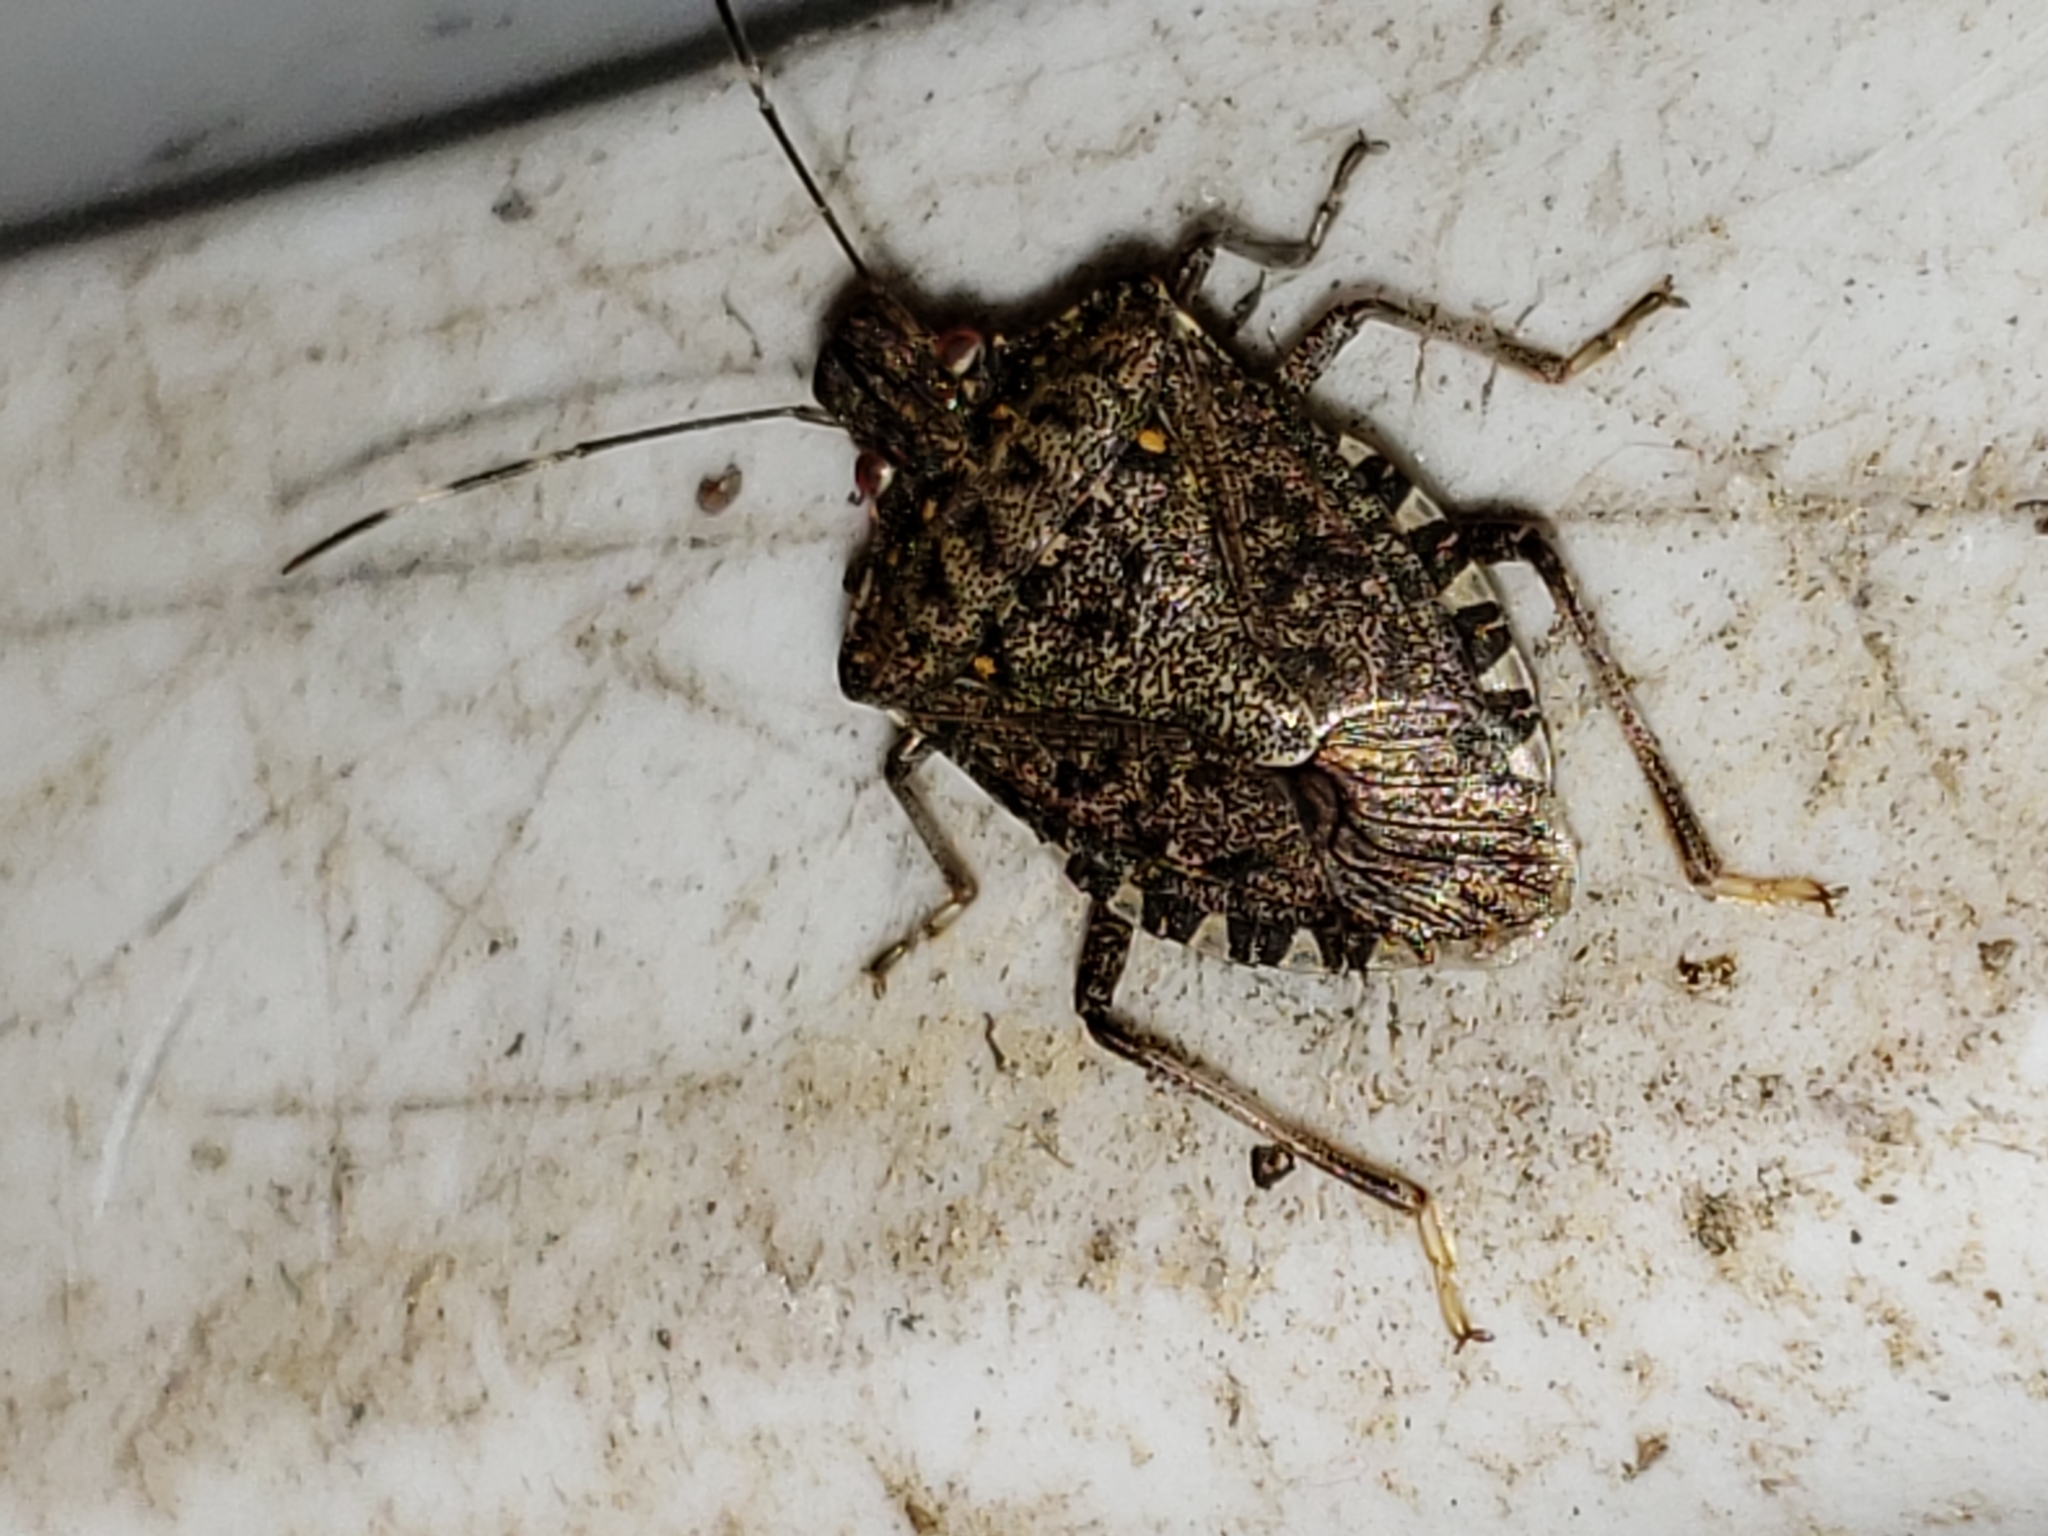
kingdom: Animalia
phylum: Arthropoda
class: Insecta
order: Hemiptera
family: Pentatomidae
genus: Halyomorpha
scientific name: Halyomorpha halys
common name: Brown marmorated stink bug
